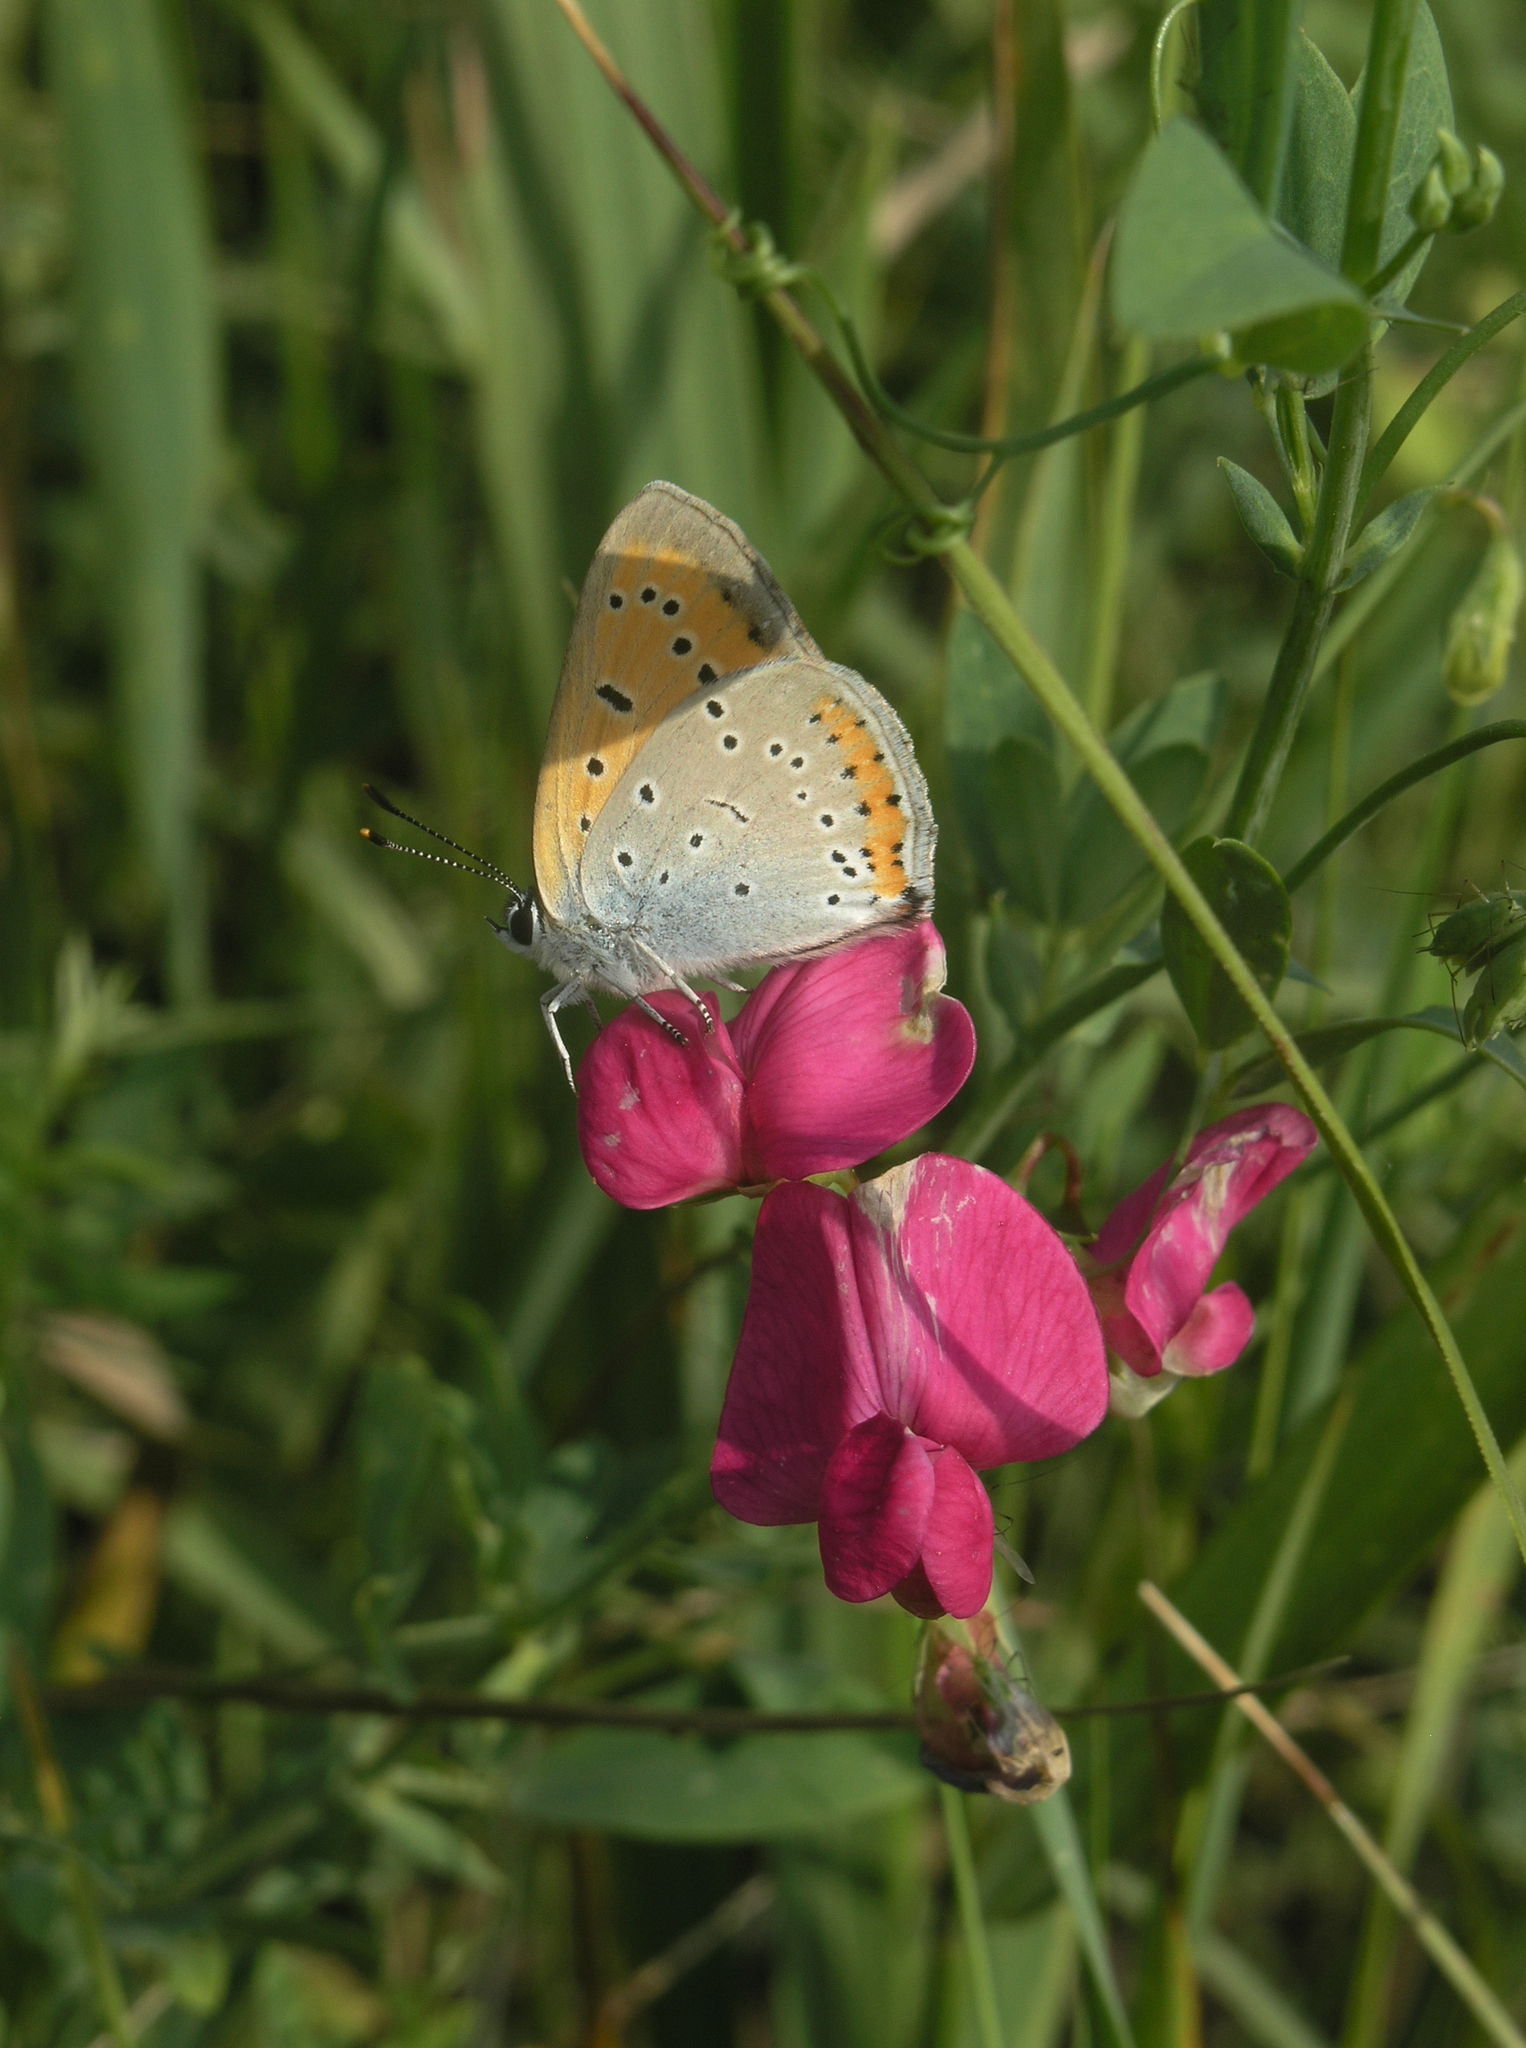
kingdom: Plantae
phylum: Tracheophyta
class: Magnoliopsida
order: Fabales
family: Fabaceae
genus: Lathyrus
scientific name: Lathyrus tuberosus
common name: Tuberous pea
